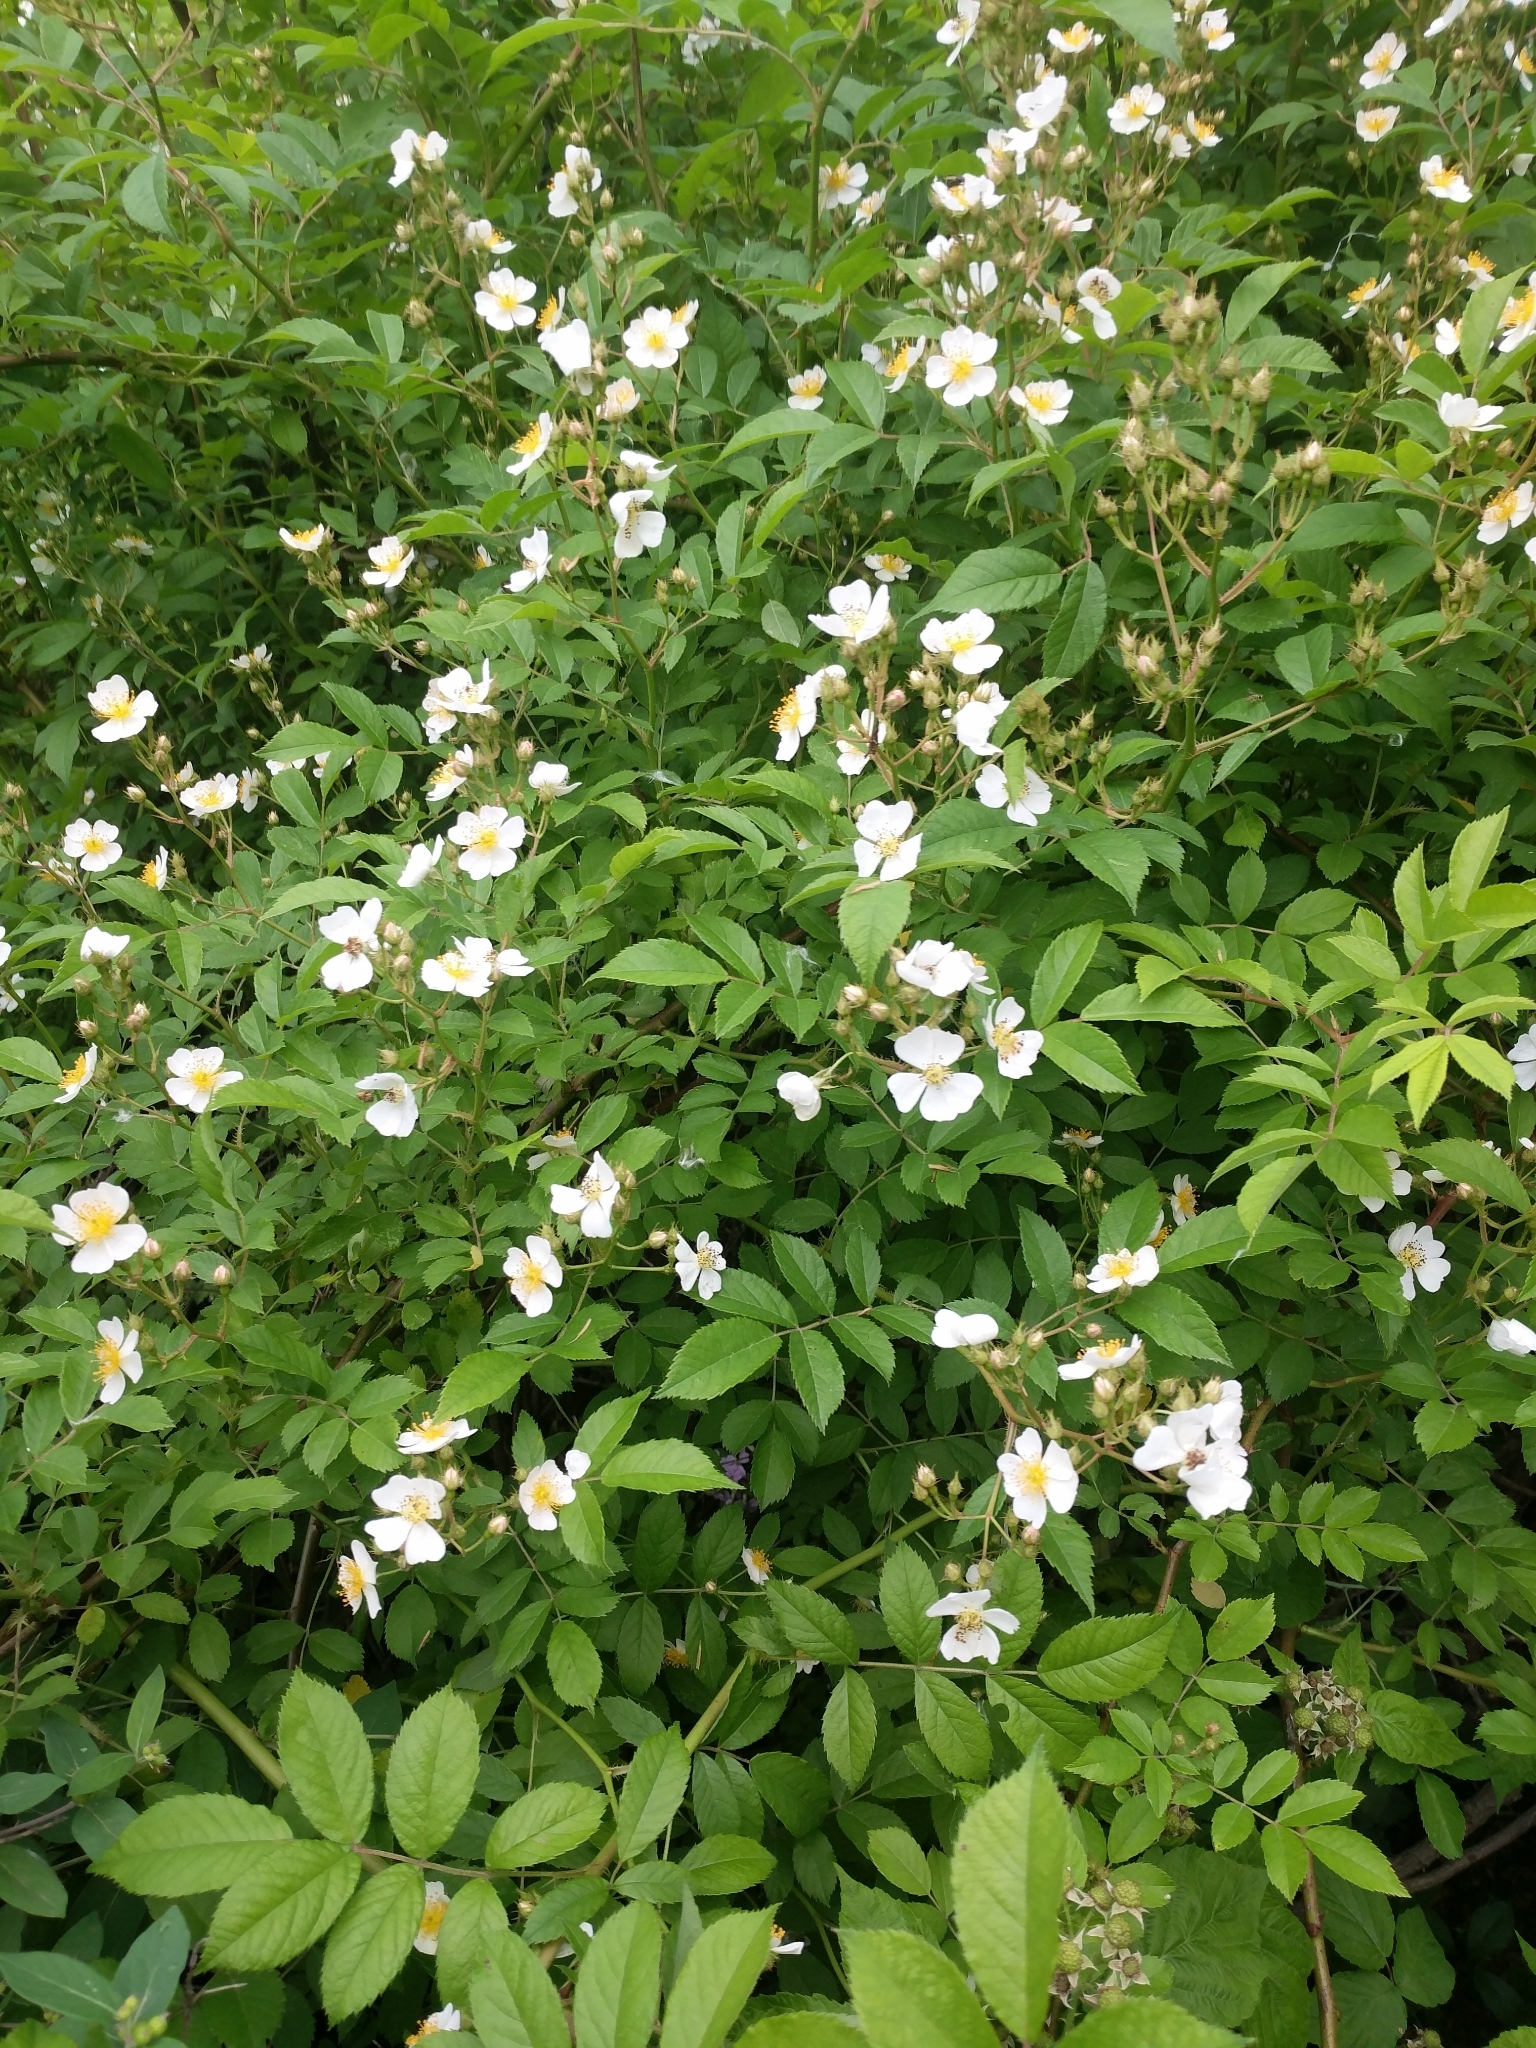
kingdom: Plantae
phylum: Tracheophyta
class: Magnoliopsida
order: Rosales
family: Rosaceae
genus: Rosa
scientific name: Rosa multiflora
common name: Multiflora rose
